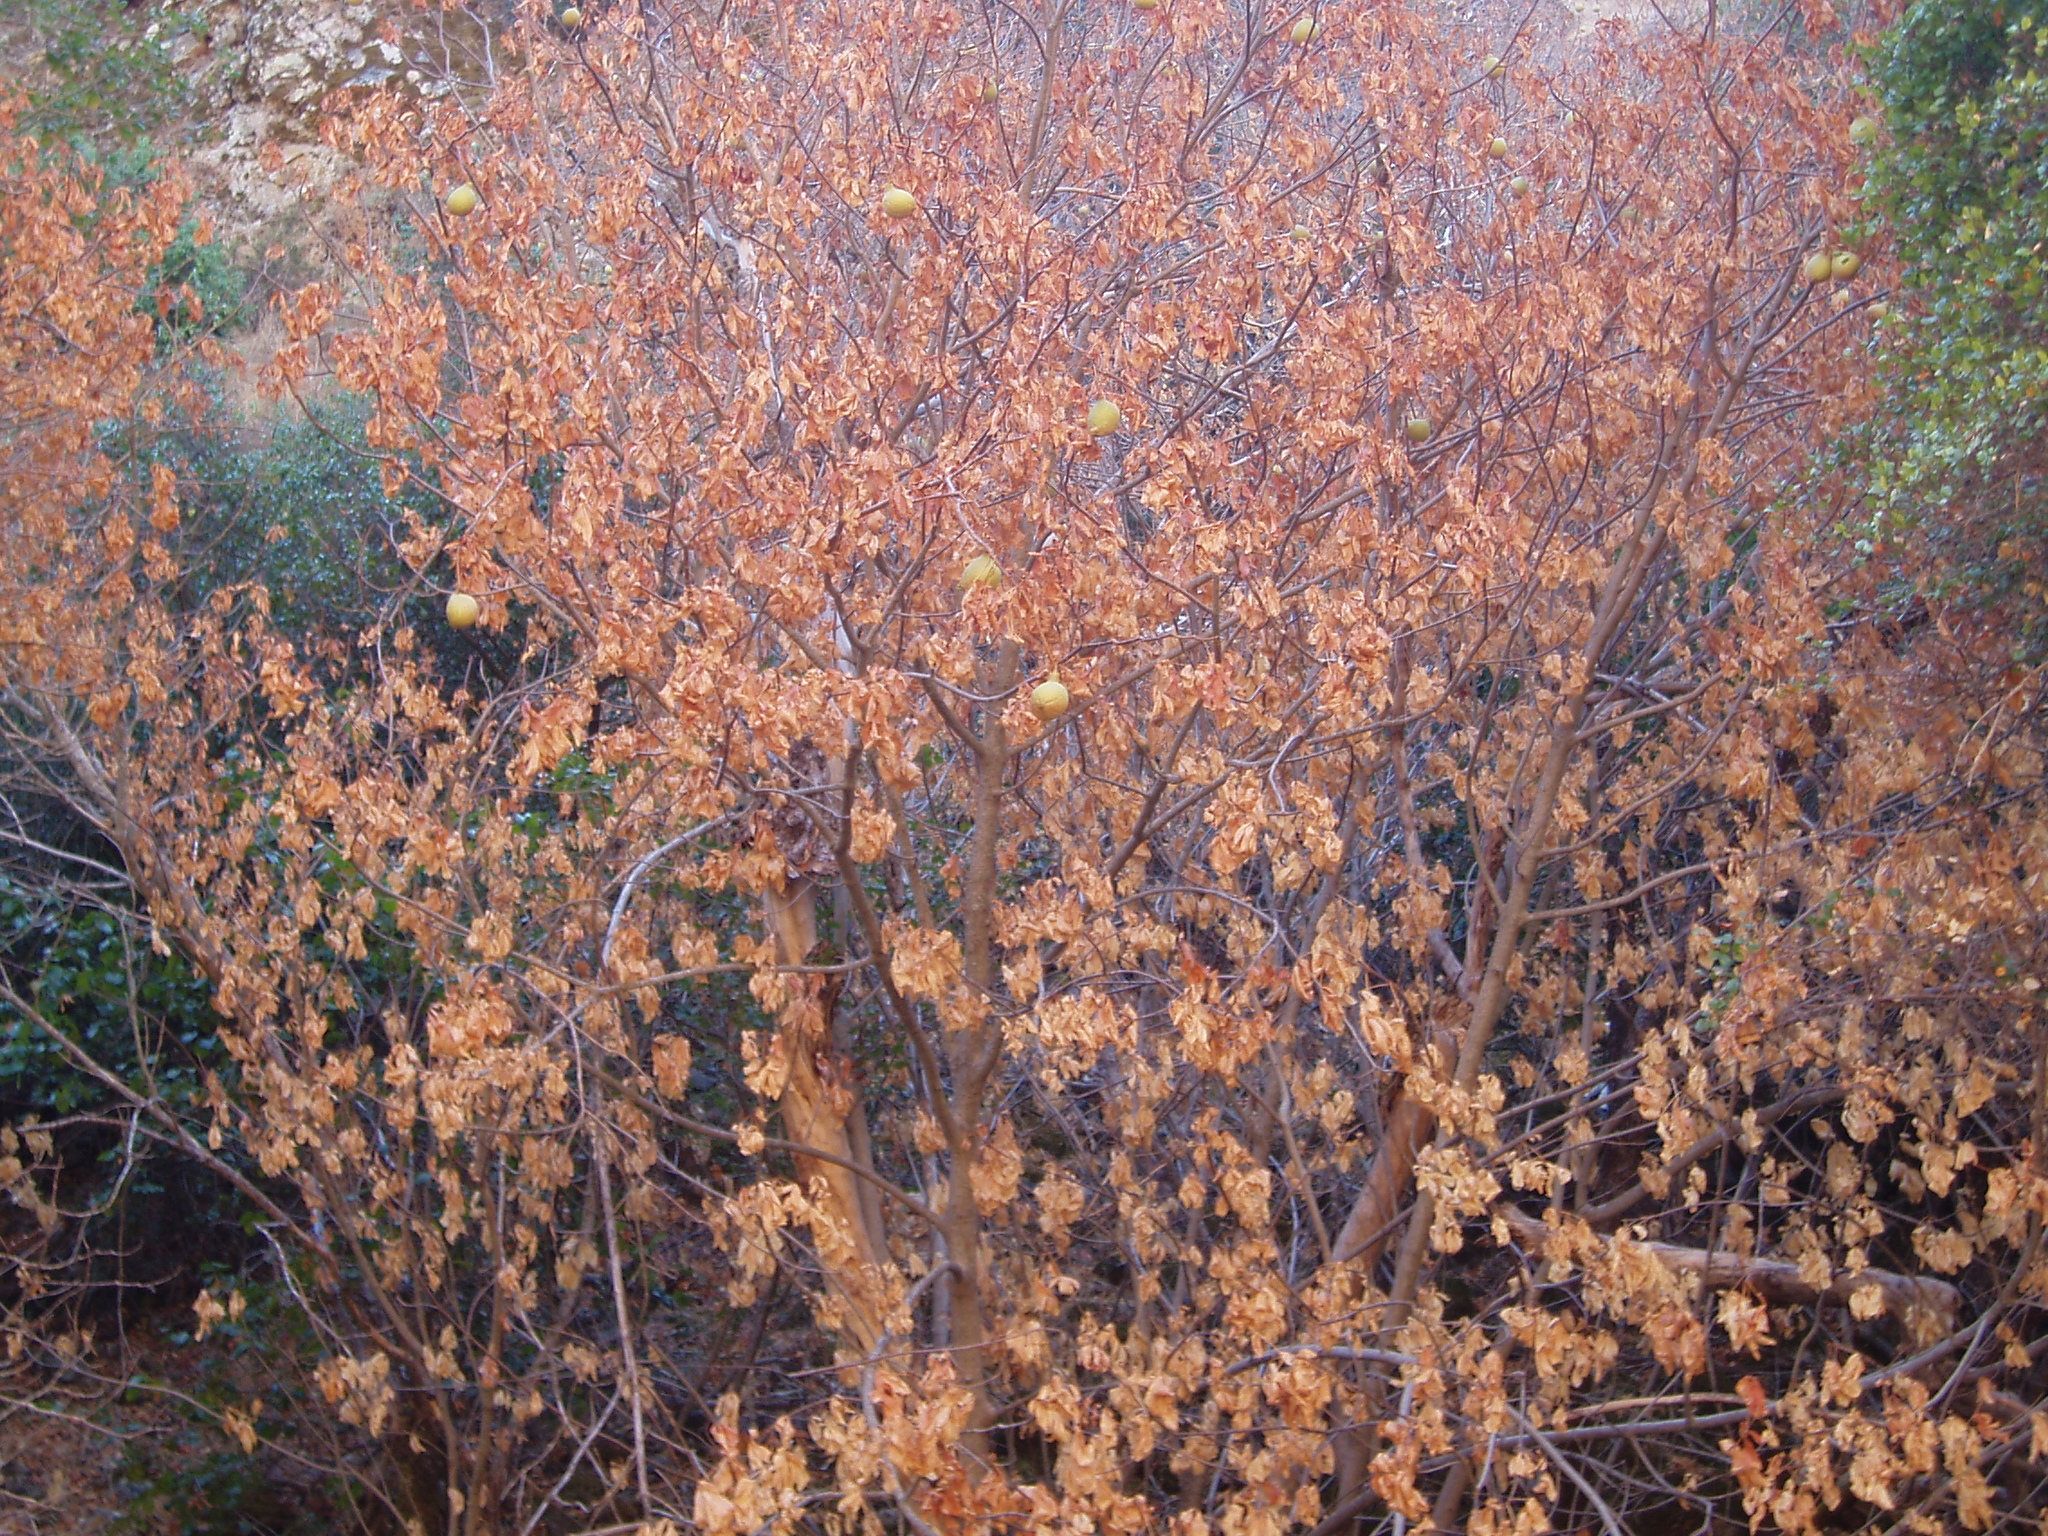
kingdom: Plantae
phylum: Tracheophyta
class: Magnoliopsida
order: Sapindales
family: Sapindaceae
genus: Aesculus
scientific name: Aesculus californica
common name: California buckeye
